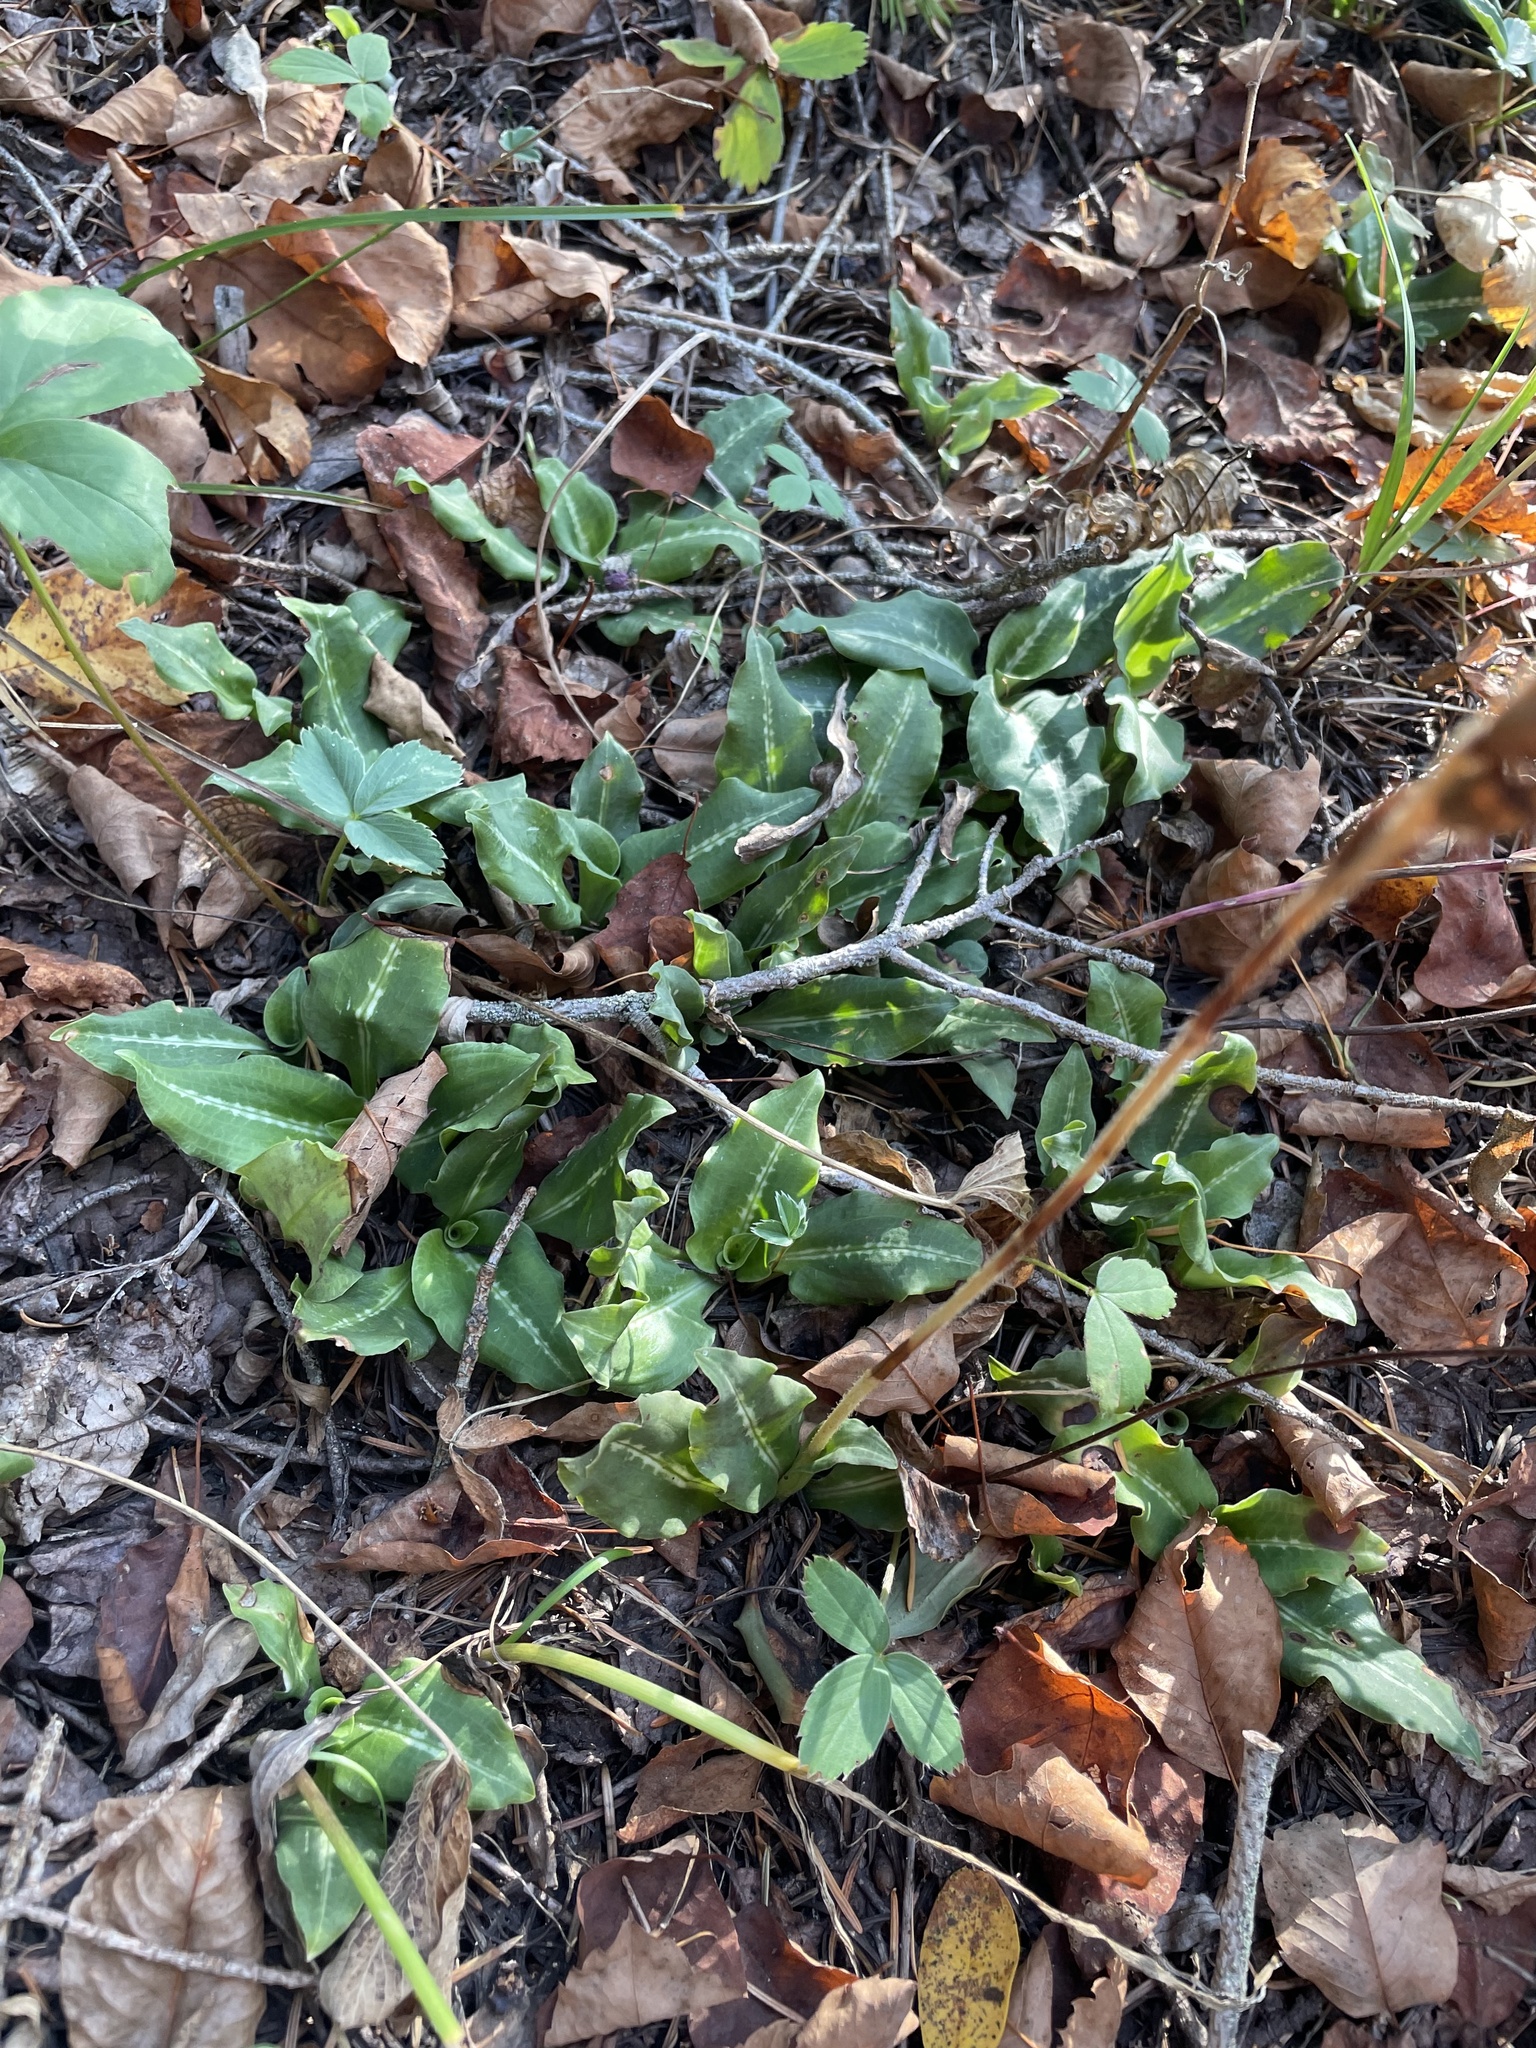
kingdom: Plantae
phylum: Tracheophyta
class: Liliopsida
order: Asparagales
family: Orchidaceae
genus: Goodyera
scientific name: Goodyera oblongifolia
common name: Giant rattlesnake-plantain
